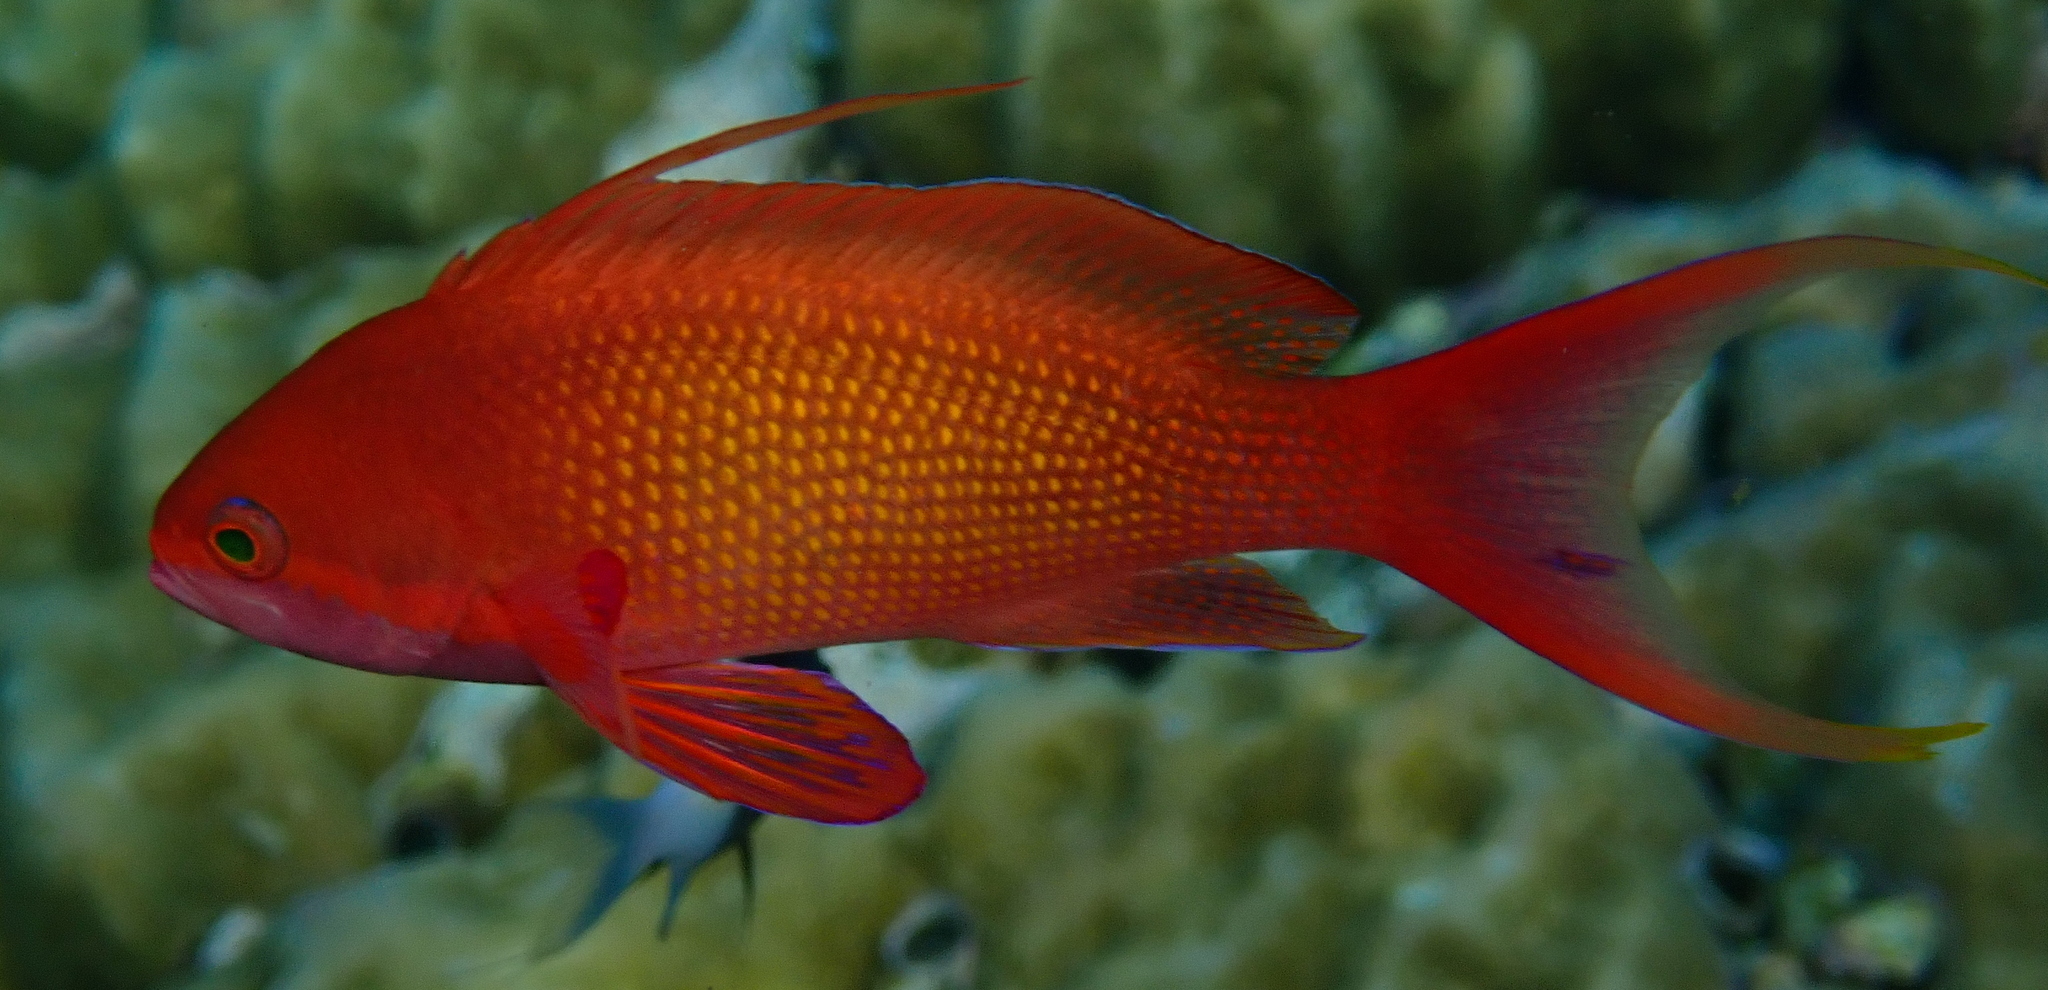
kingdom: Animalia
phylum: Chordata
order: Perciformes
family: Serranidae
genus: Pseudanthias
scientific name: Pseudanthias squamipinnis
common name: Scalefin anthias
